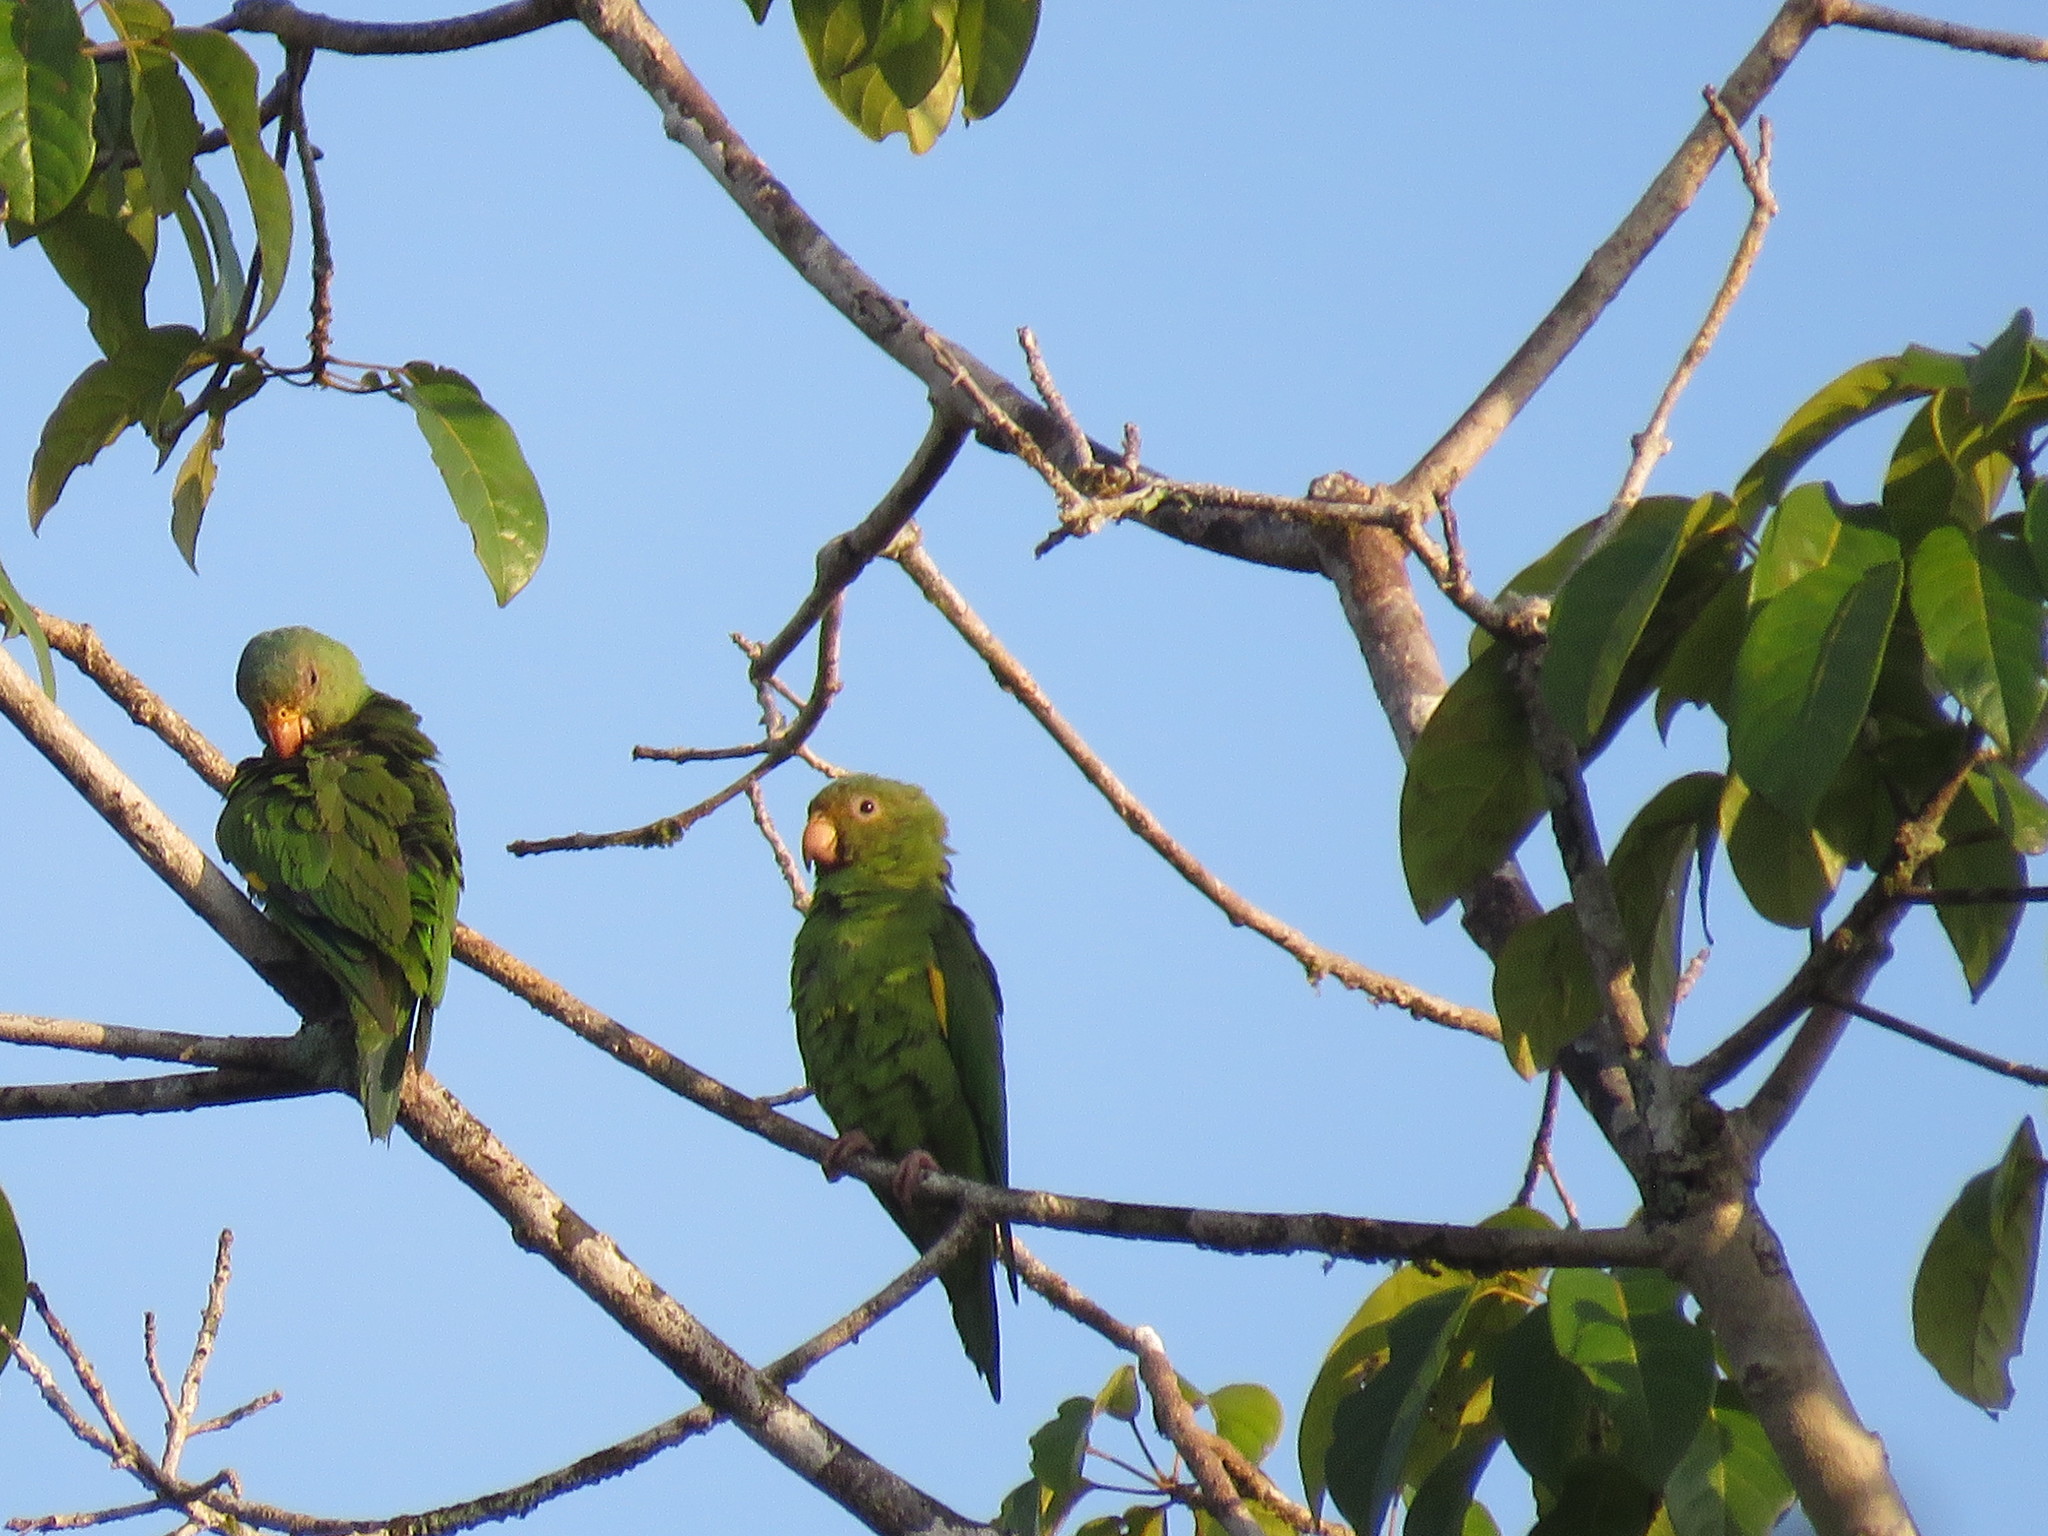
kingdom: Animalia
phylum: Chordata
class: Aves
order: Psittaciformes
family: Psittacidae
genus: Brotogeris
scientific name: Brotogeris cyanoptera
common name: Cobalt-winged parakeet
